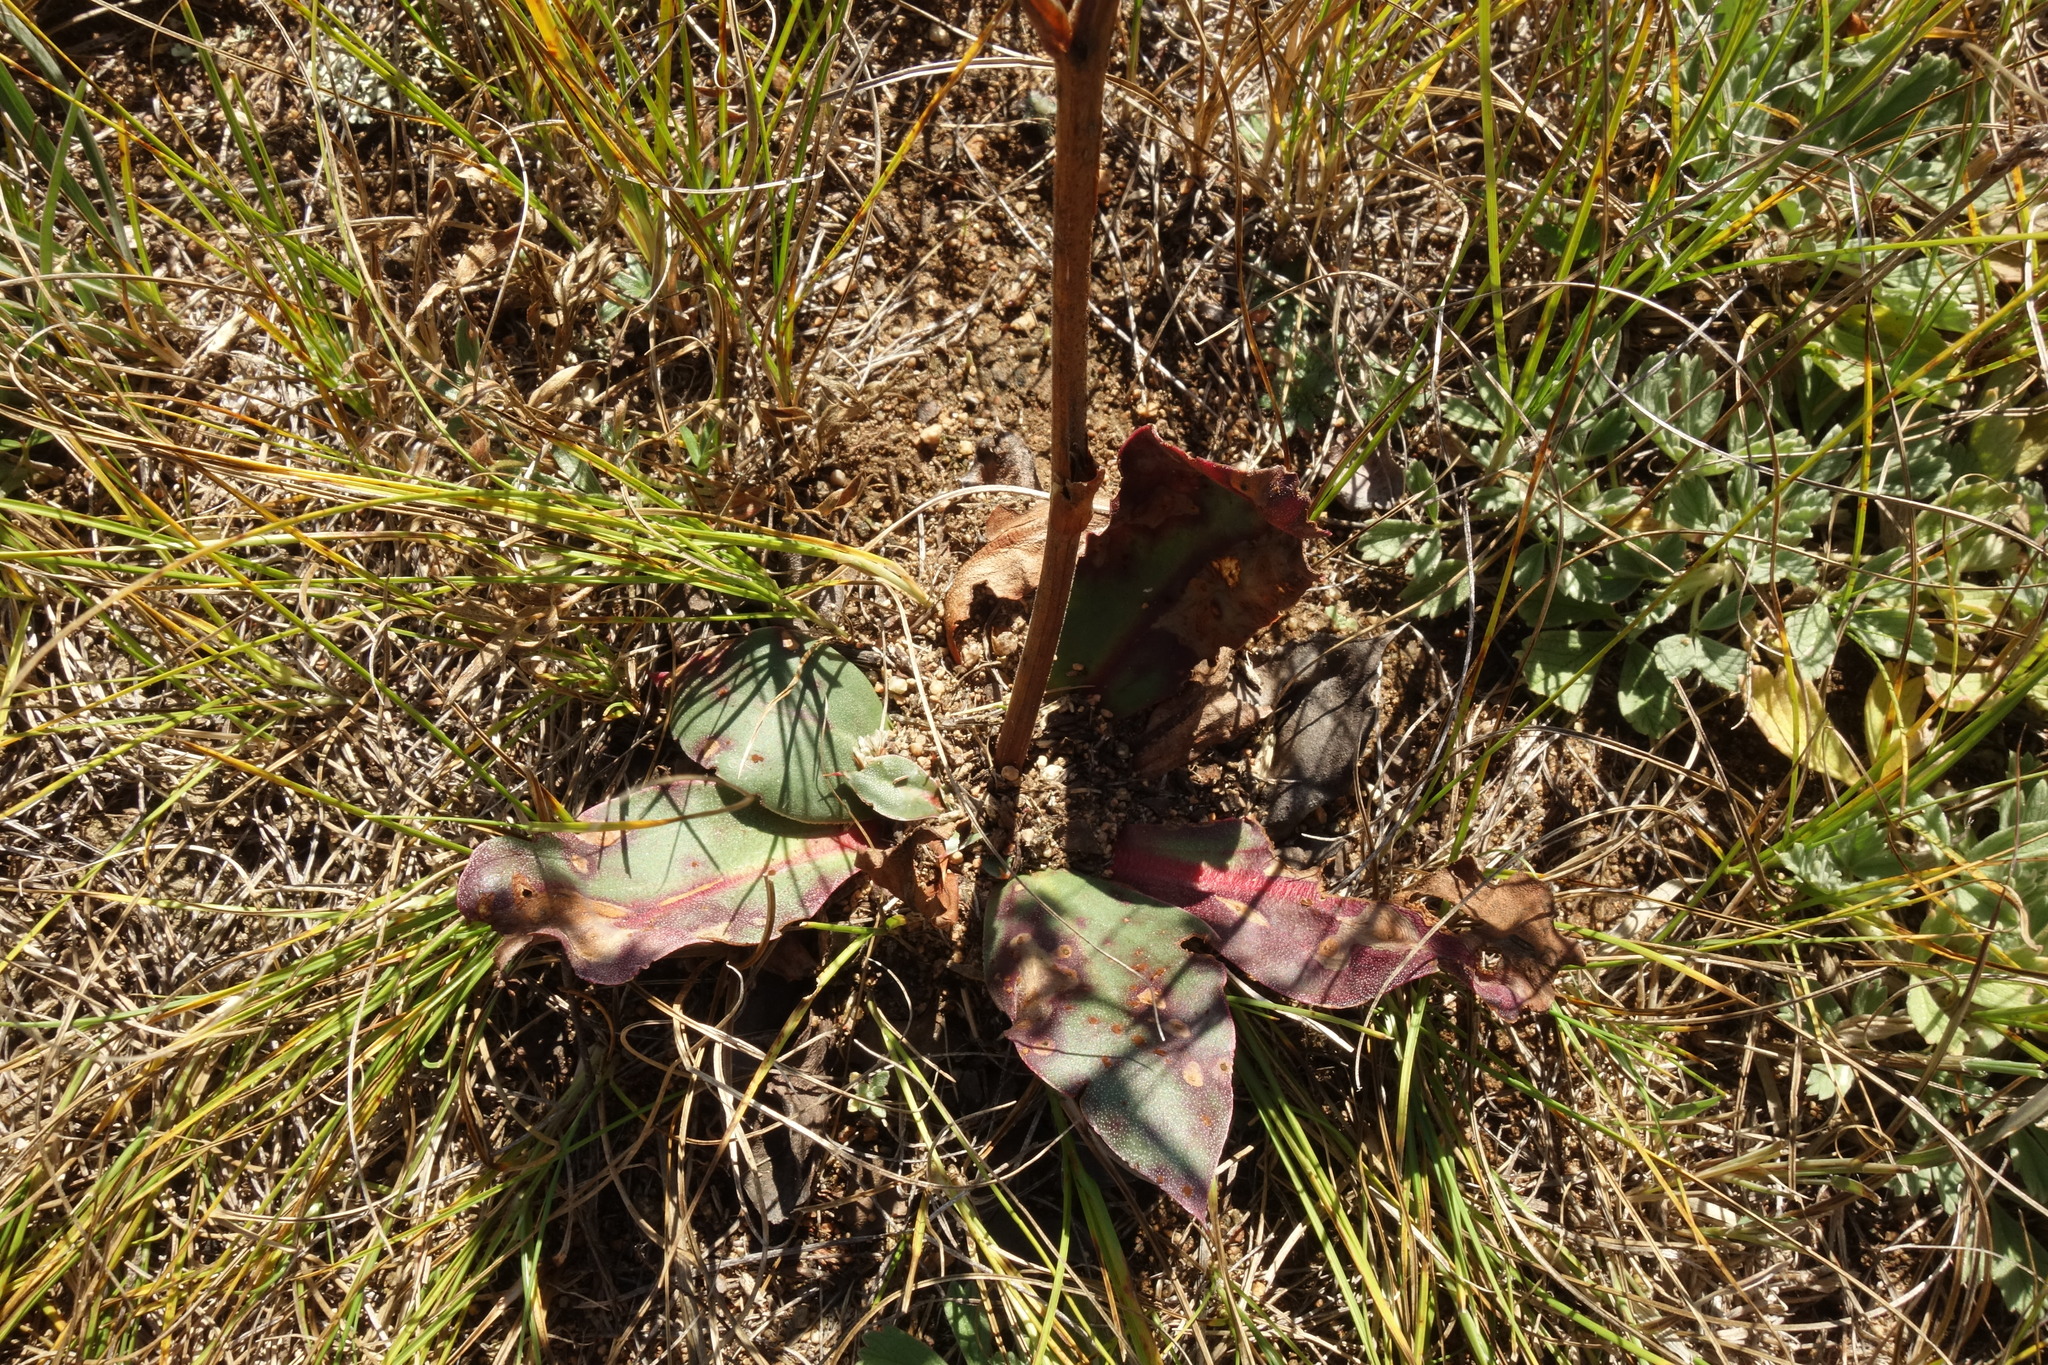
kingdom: Plantae
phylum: Tracheophyta
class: Magnoliopsida
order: Caryophyllales
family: Plumbaginaceae
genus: Goniolimon
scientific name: Goniolimon speciosum
